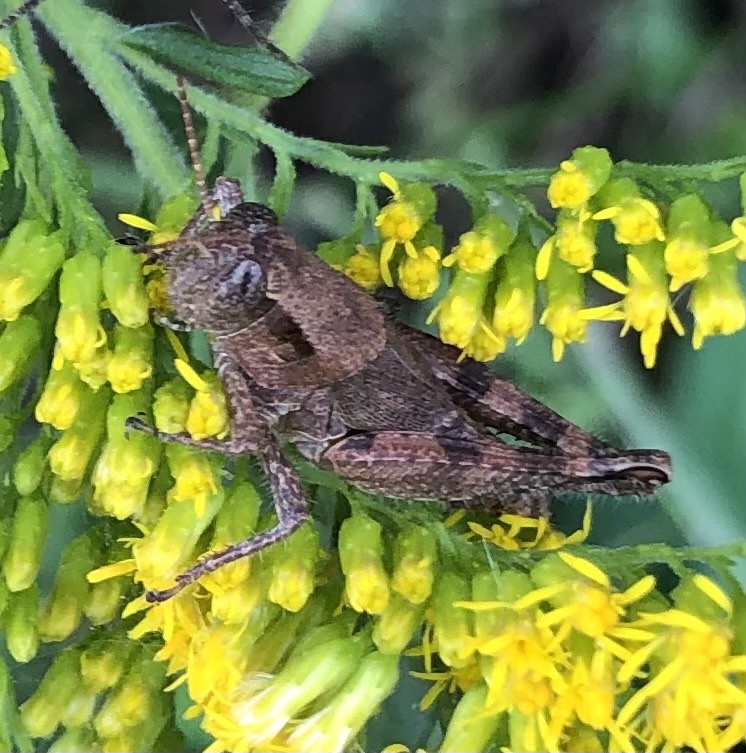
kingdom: Animalia
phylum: Arthropoda
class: Insecta
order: Orthoptera
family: Acrididae
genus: Melanoplus
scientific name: Melanoplus scudderi
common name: Scudder's short-winged locust
